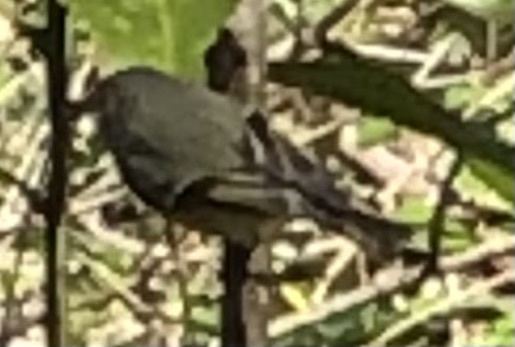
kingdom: Animalia
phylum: Chordata
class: Aves
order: Passeriformes
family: Regulidae
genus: Regulus
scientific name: Regulus calendula
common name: Ruby-crowned kinglet
